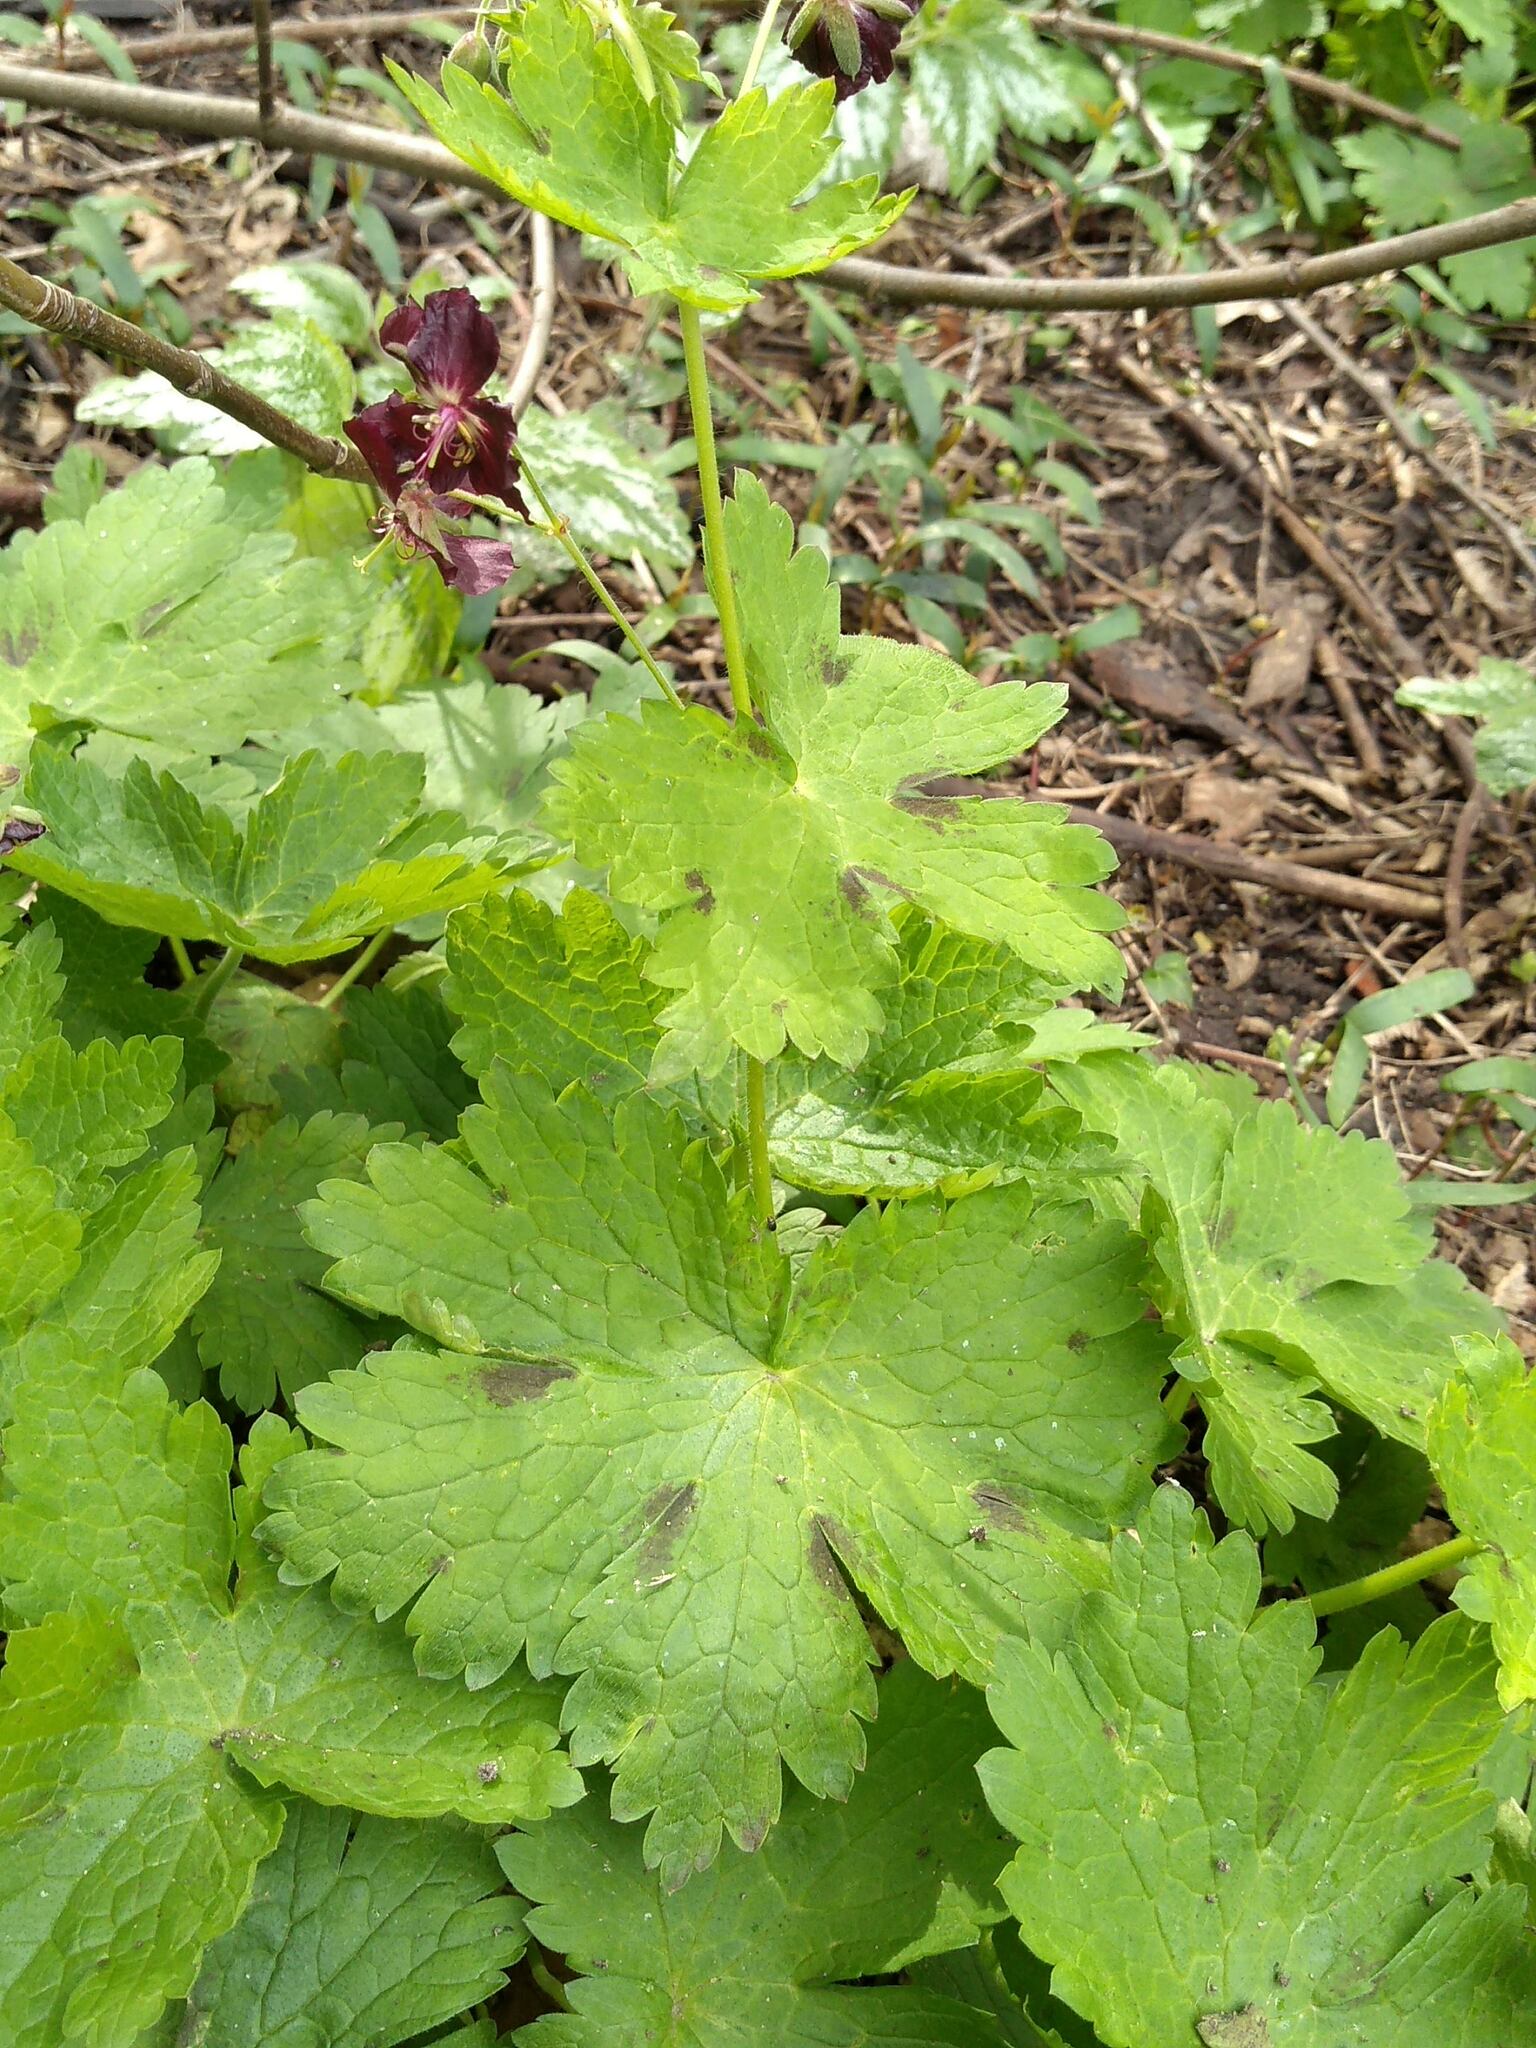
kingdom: Plantae
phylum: Tracheophyta
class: Magnoliopsida
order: Geraniales
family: Geraniaceae
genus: Geranium
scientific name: Geranium phaeum
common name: Dusky crane's-bill
